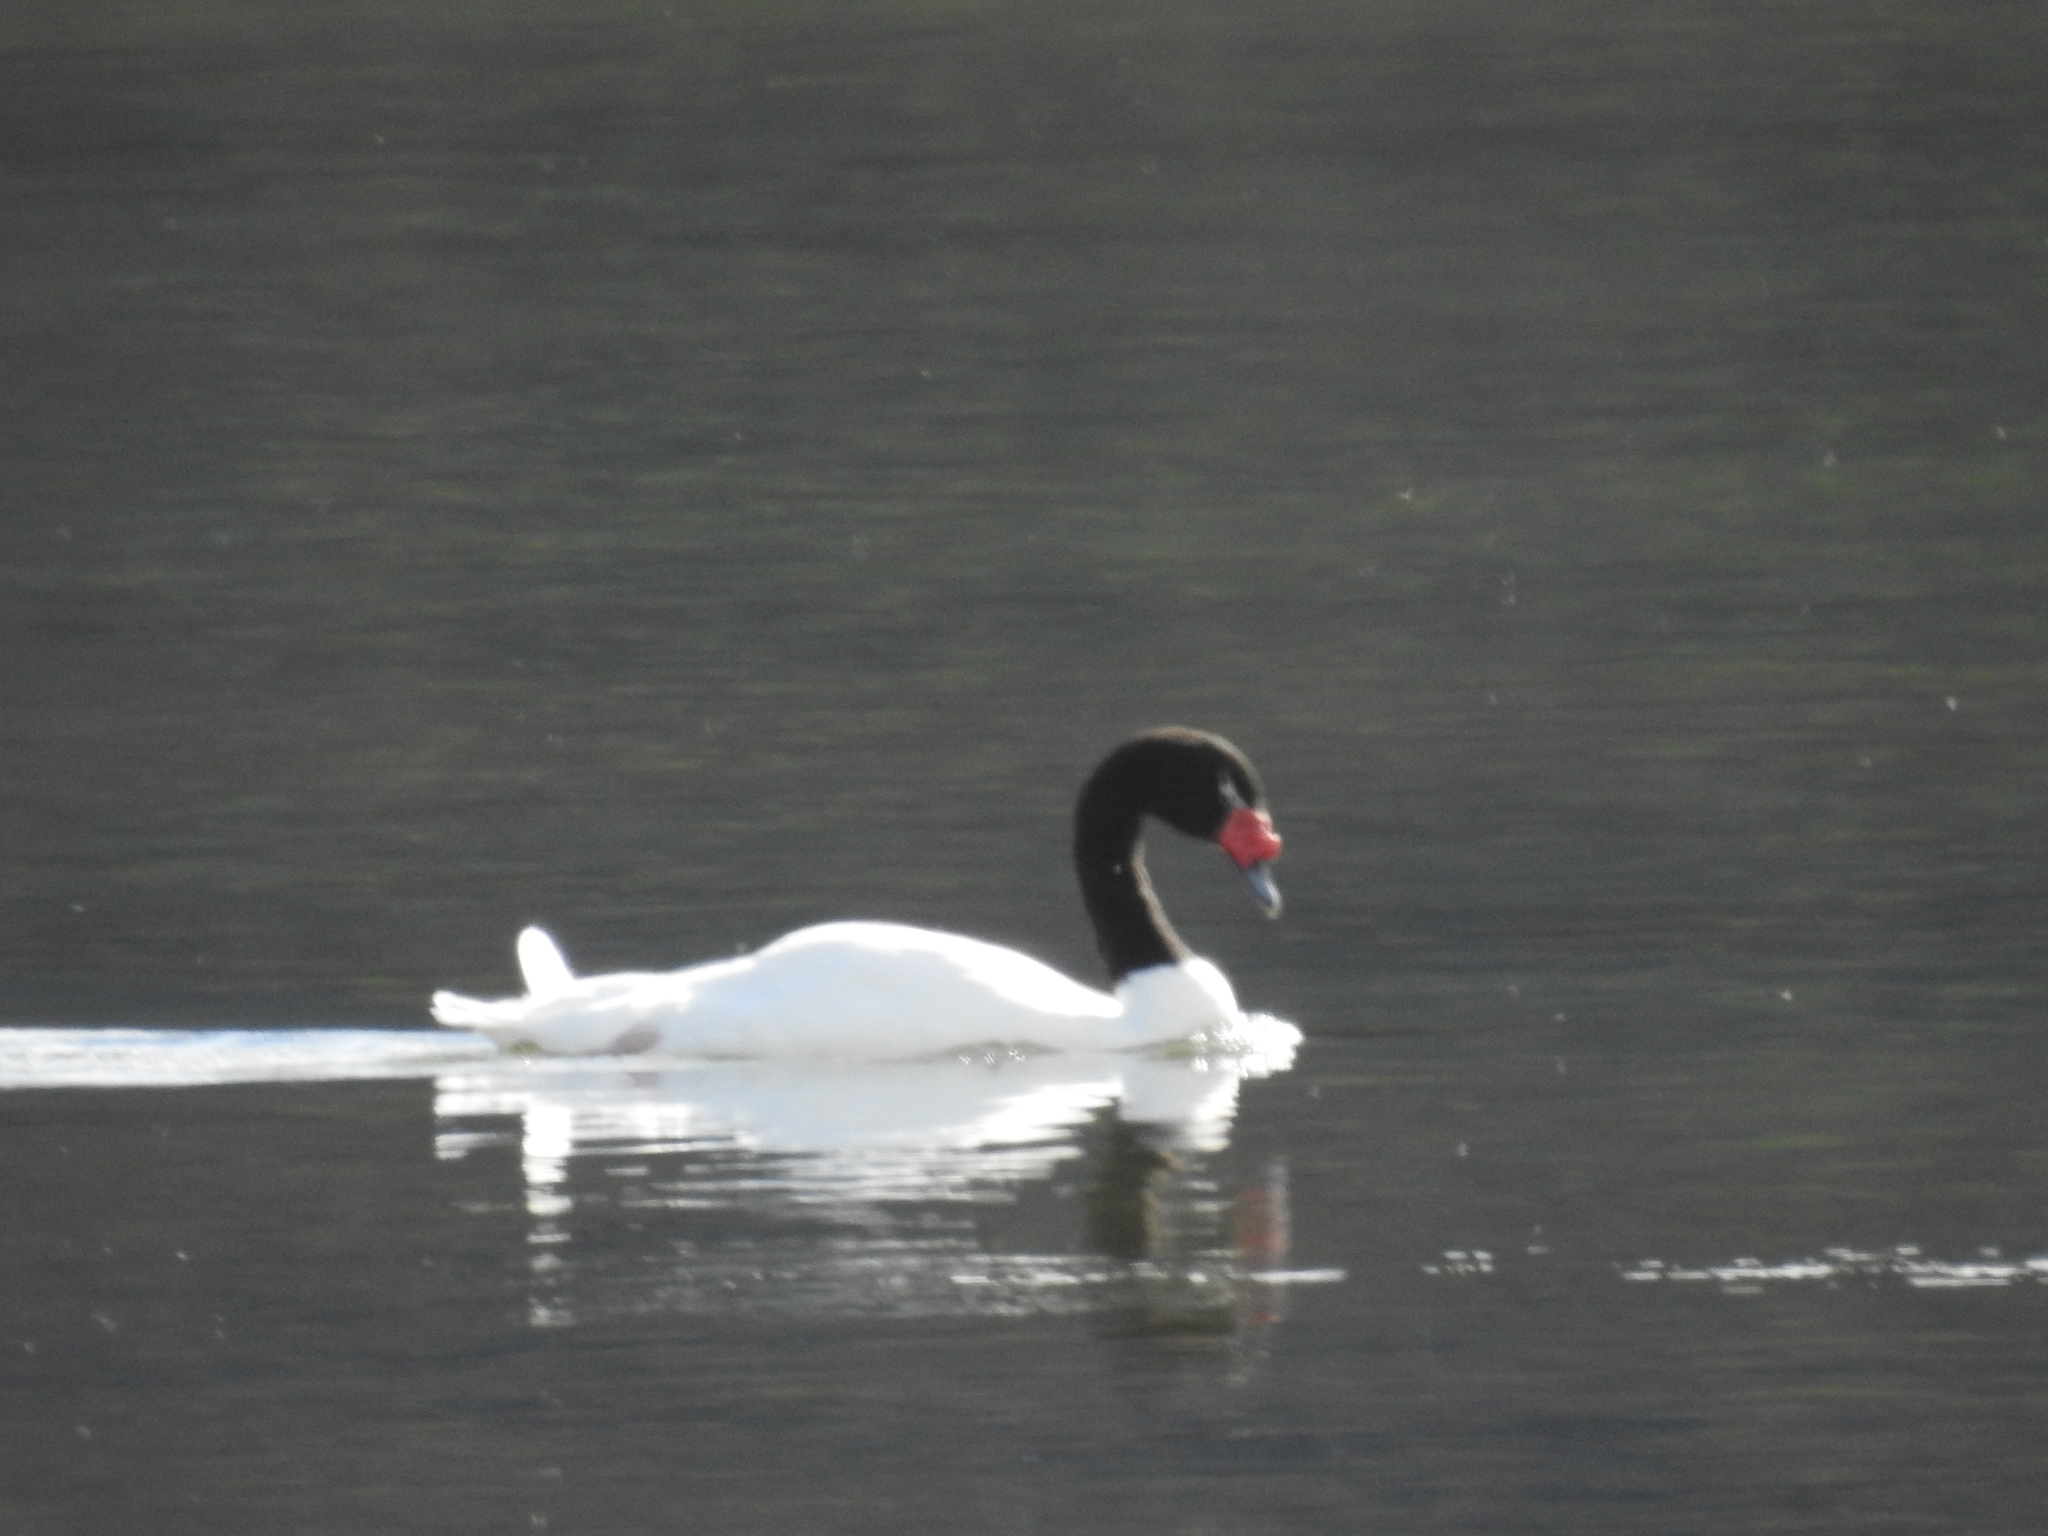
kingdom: Animalia
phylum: Chordata
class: Aves
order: Anseriformes
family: Anatidae
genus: Cygnus
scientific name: Cygnus melancoryphus
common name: Black-necked swan
